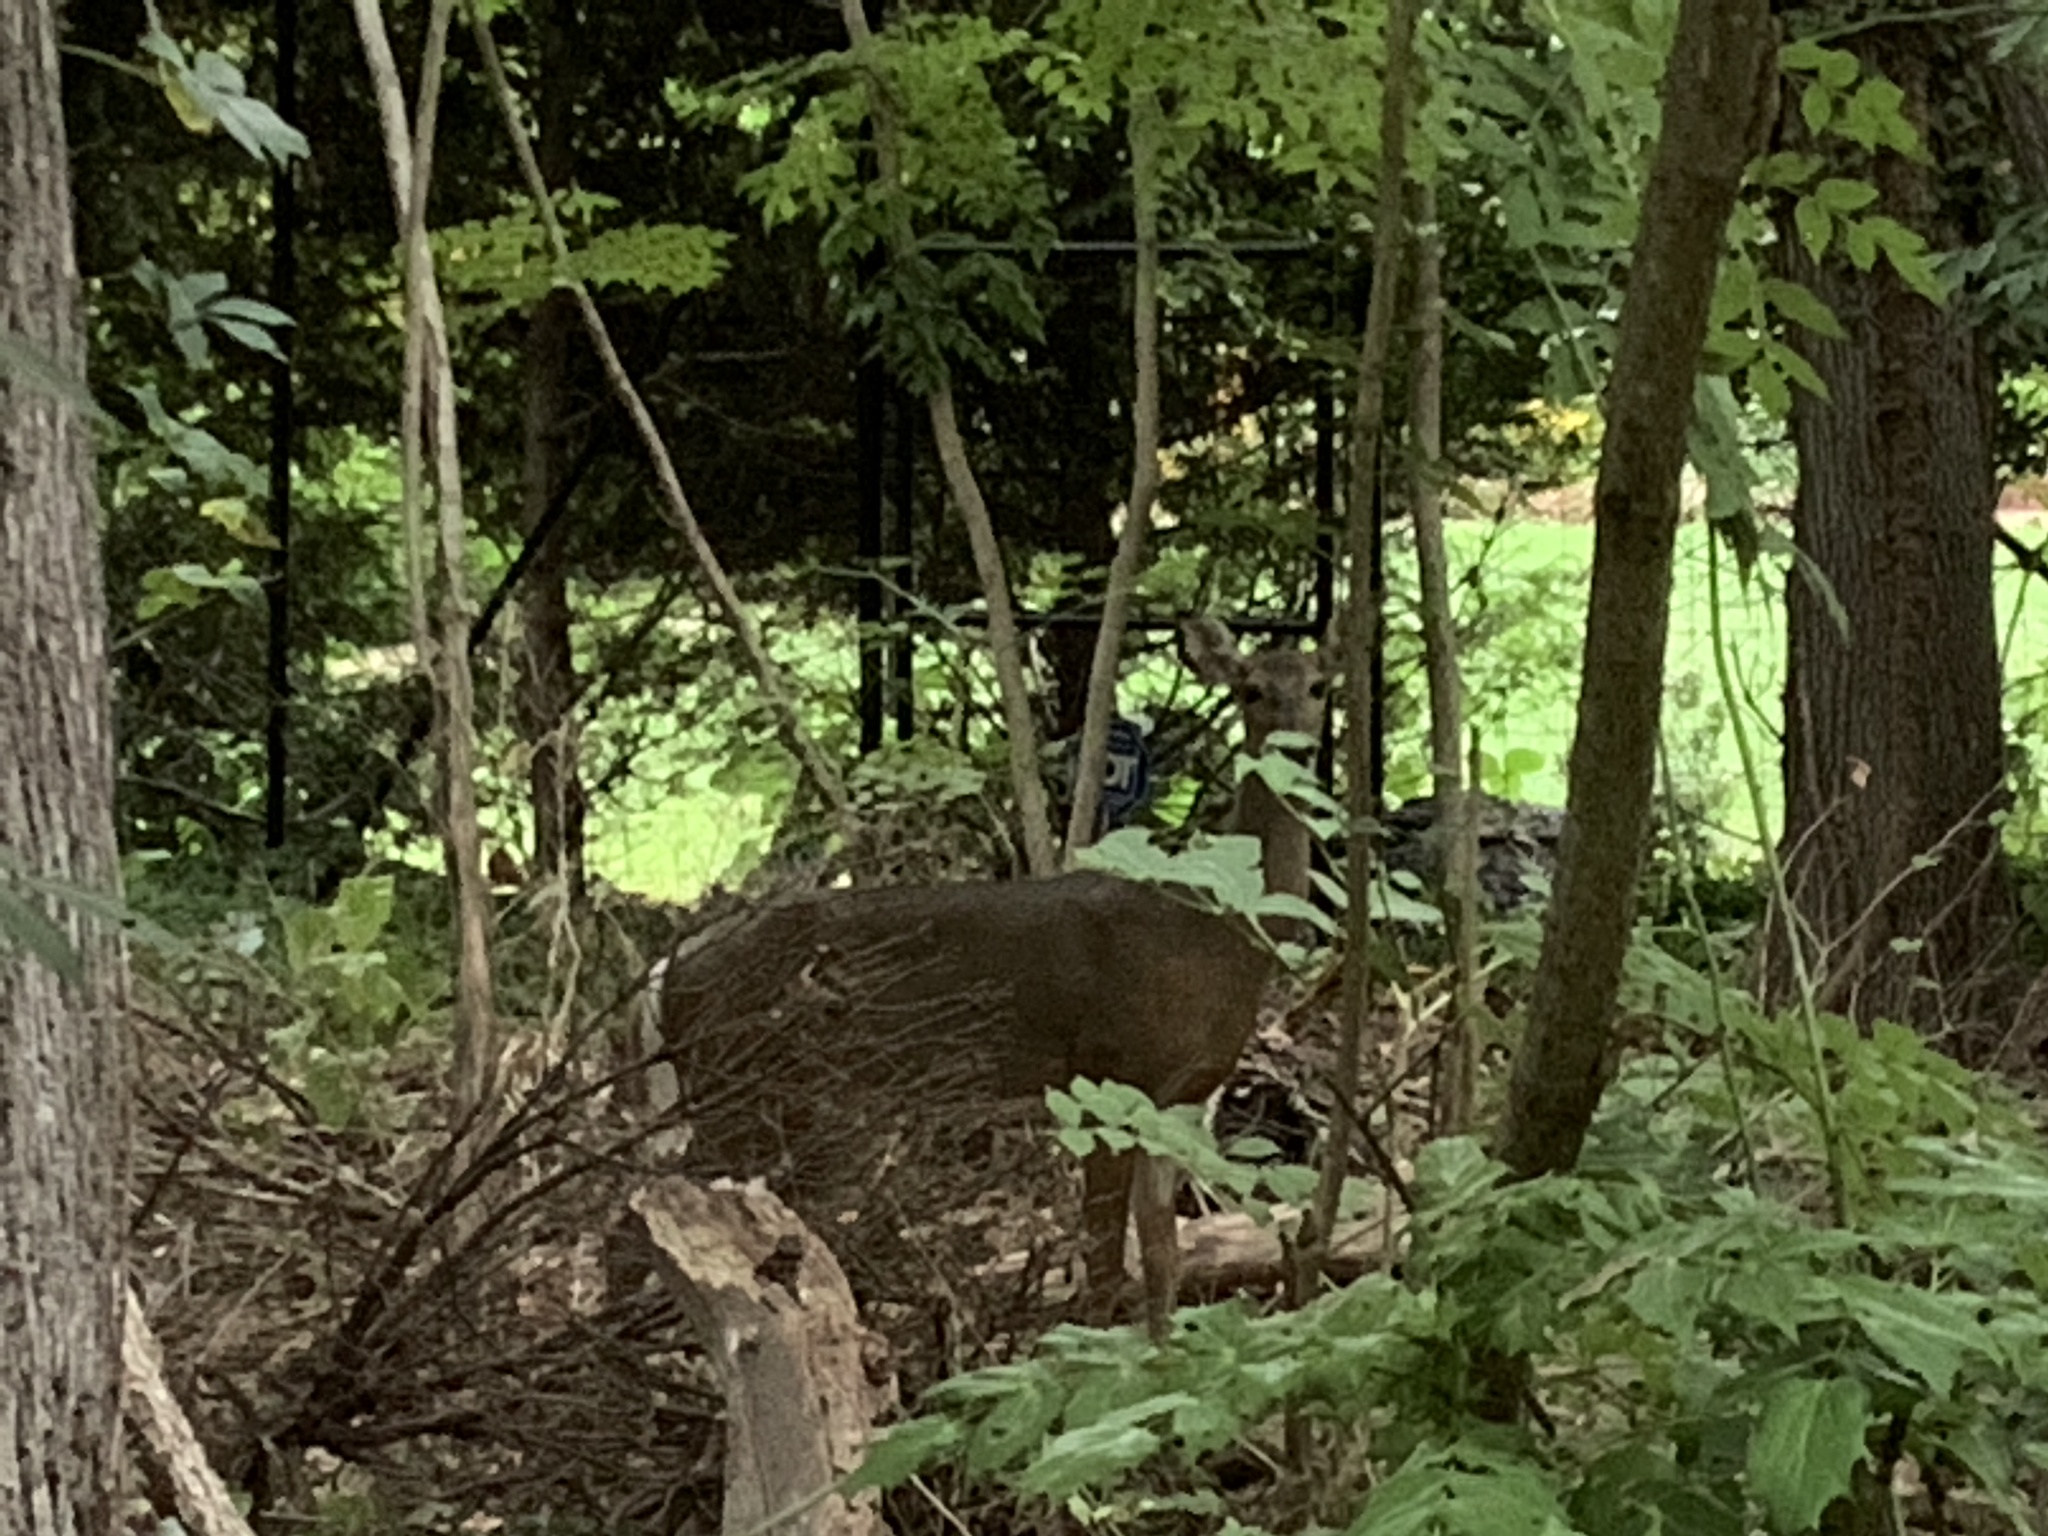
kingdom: Animalia
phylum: Chordata
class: Mammalia
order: Artiodactyla
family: Cervidae
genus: Odocoileus
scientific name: Odocoileus virginianus
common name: White-tailed deer
